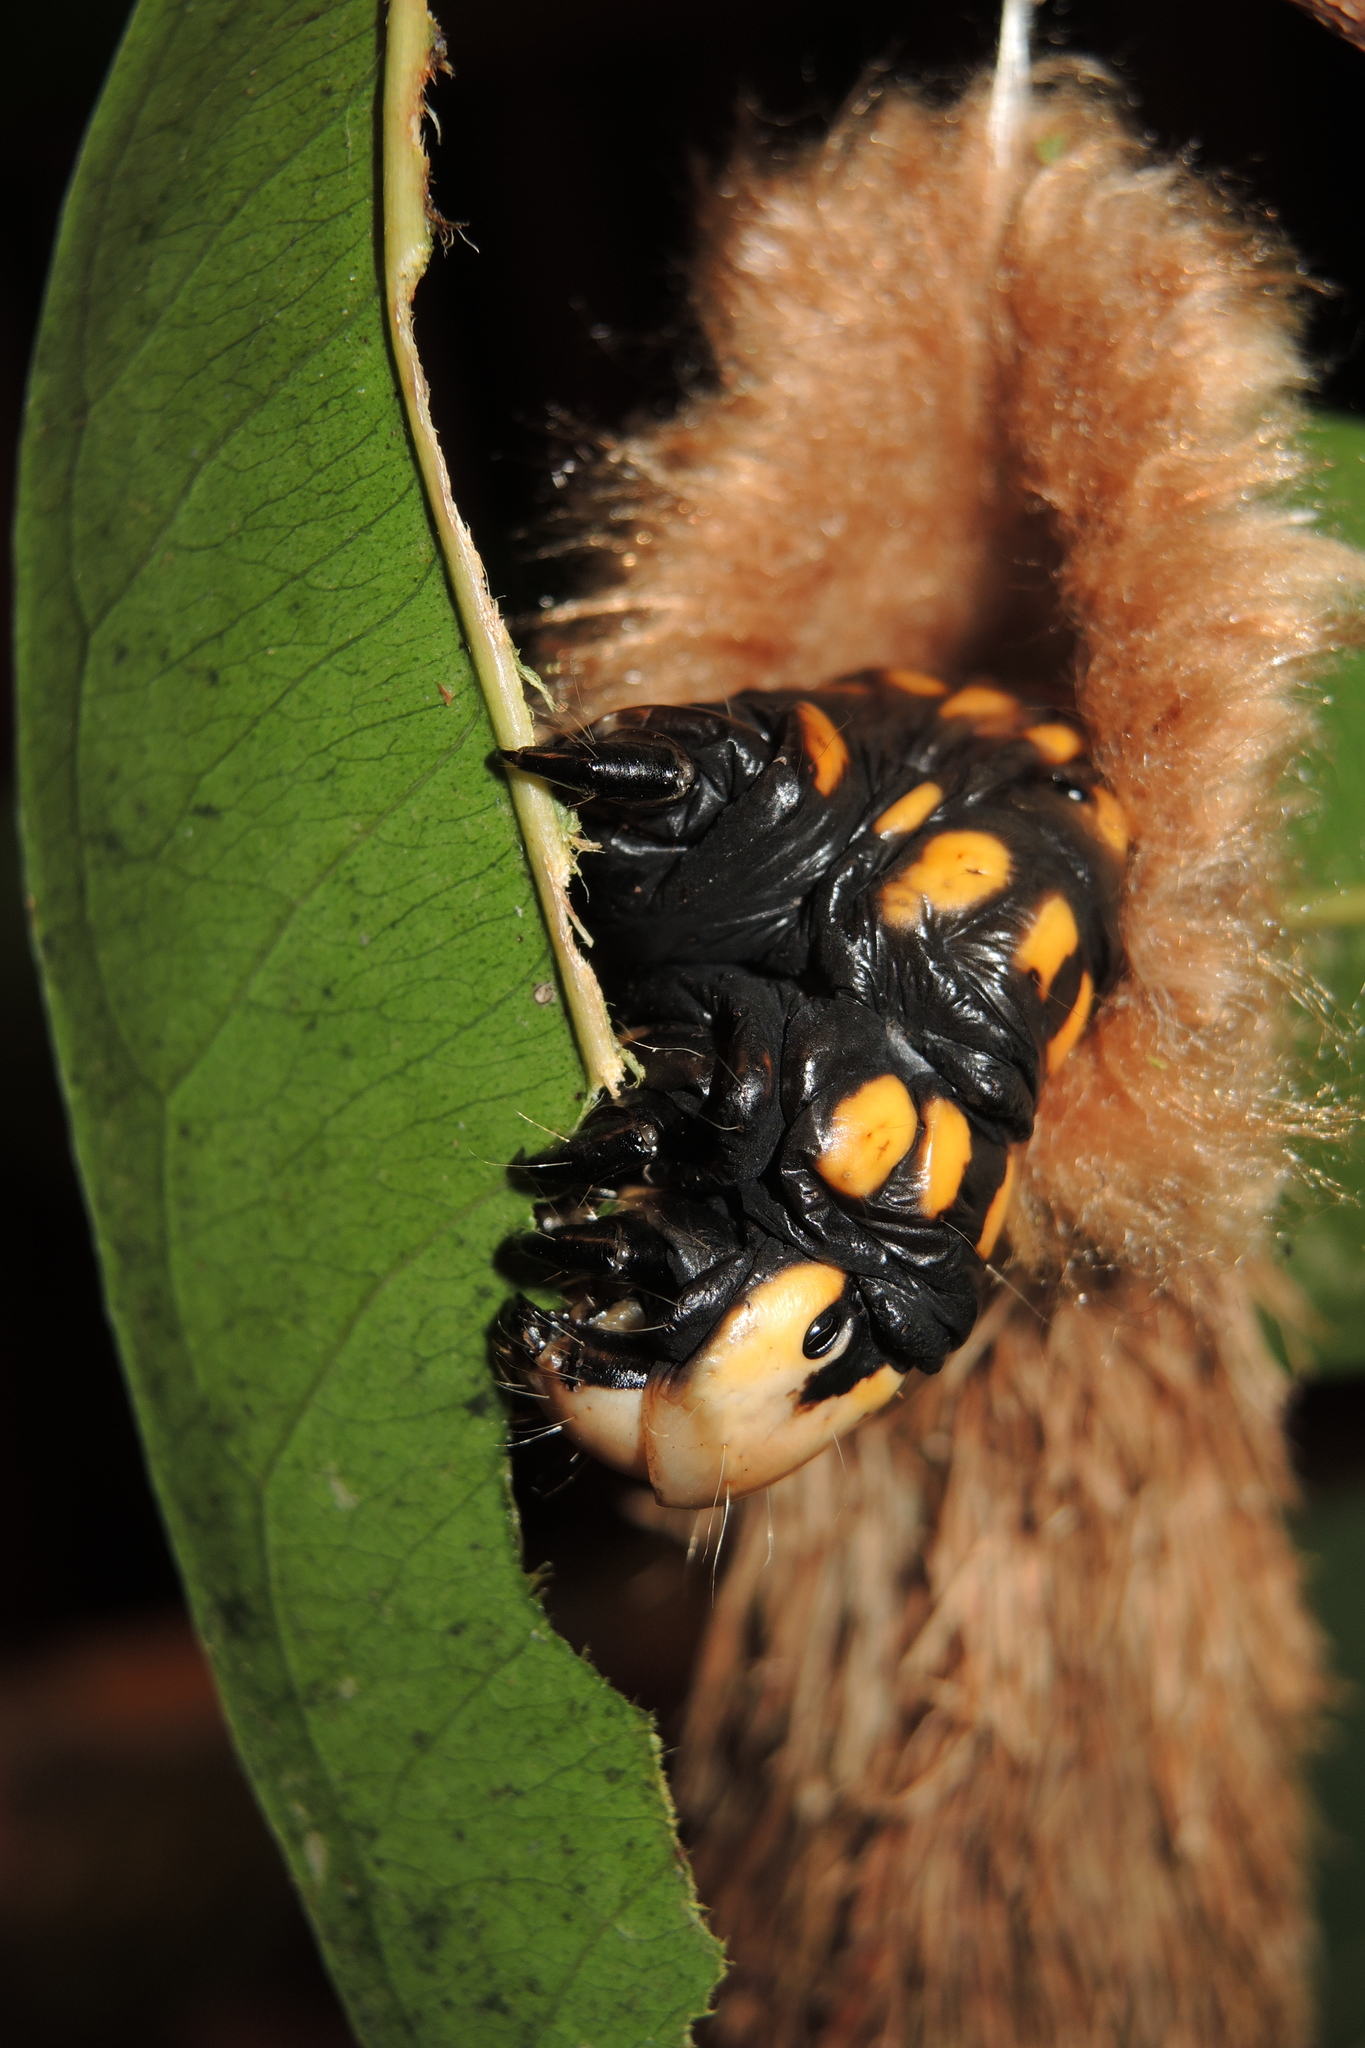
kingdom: Animalia
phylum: Arthropoda
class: Insecta
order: Lepidoptera
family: Psychidae
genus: Metura
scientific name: Metura aristocosma
